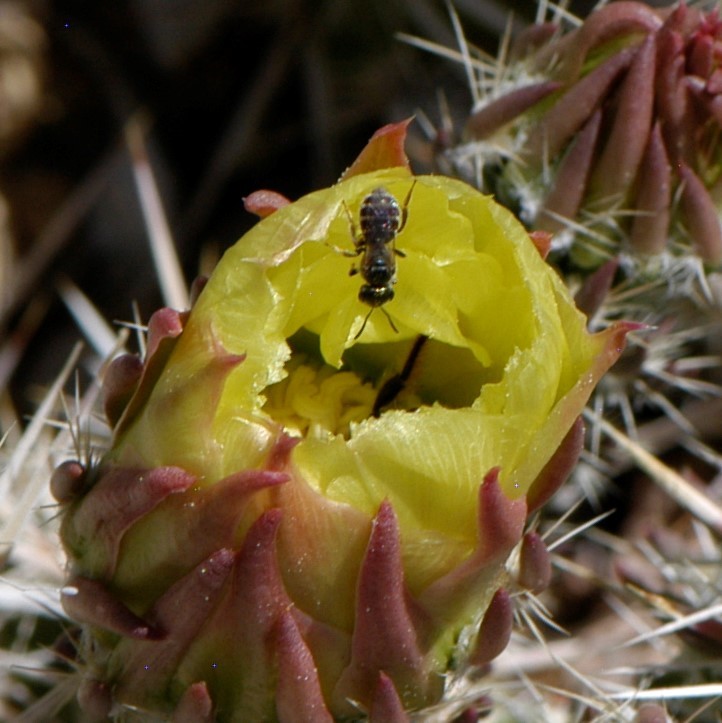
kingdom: Animalia
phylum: Arthropoda
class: Insecta
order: Hymenoptera
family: Halictidae
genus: Halictus
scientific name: Halictus tripartitus
